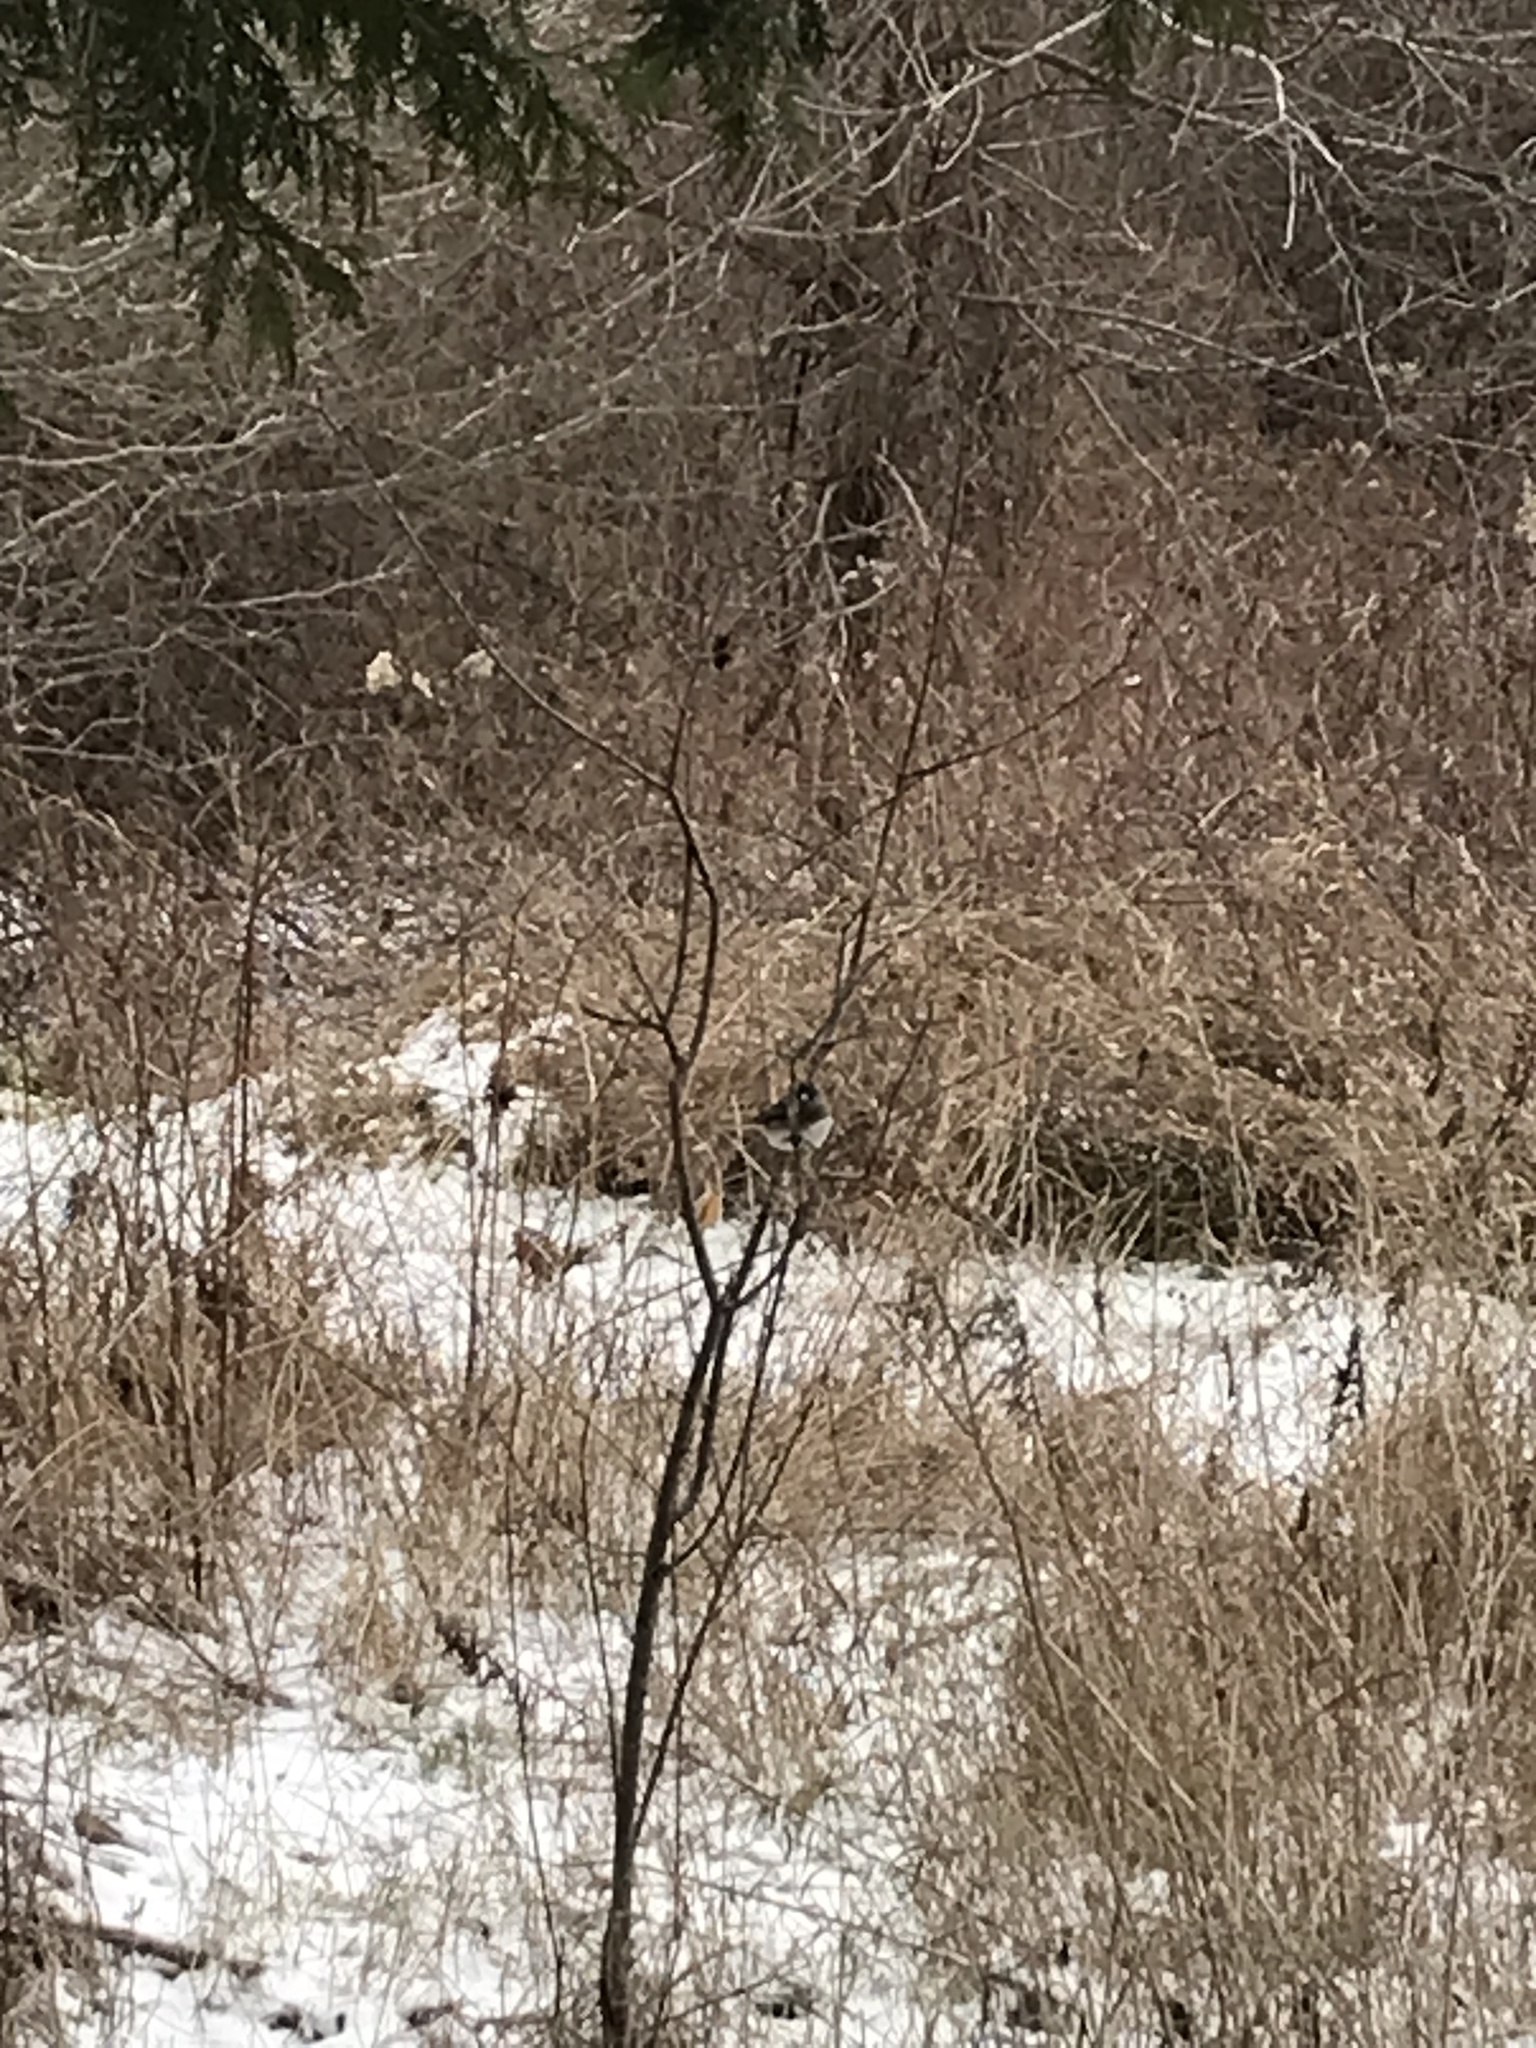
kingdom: Animalia
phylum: Chordata
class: Aves
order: Passeriformes
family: Passerellidae
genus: Junco
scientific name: Junco hyemalis
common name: Dark-eyed junco
